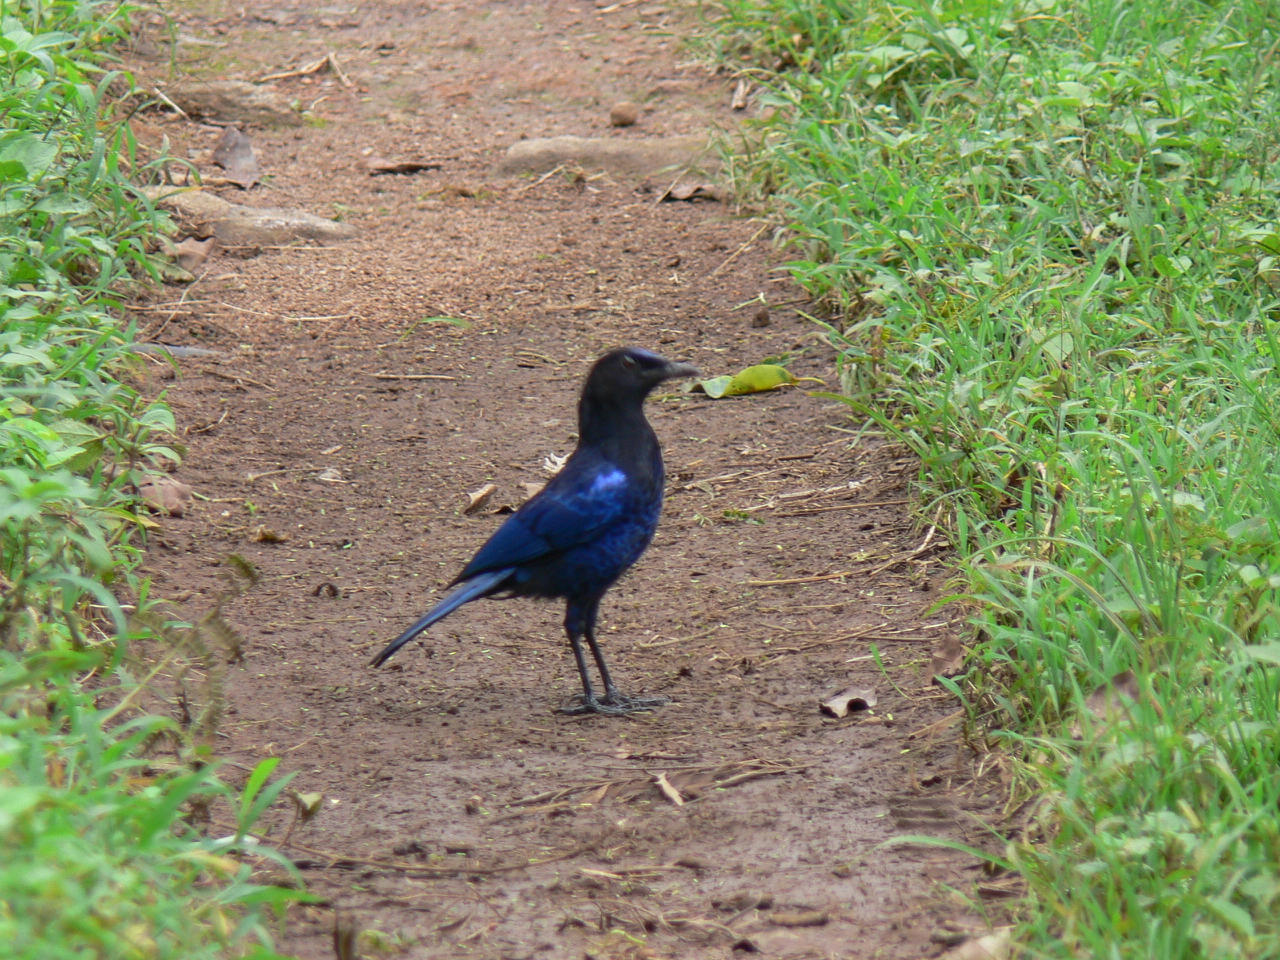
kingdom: Animalia
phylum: Chordata
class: Aves
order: Passeriformes
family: Muscicapidae
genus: Myophonus
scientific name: Myophonus horsfieldii
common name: Malabar whistling-thrush
